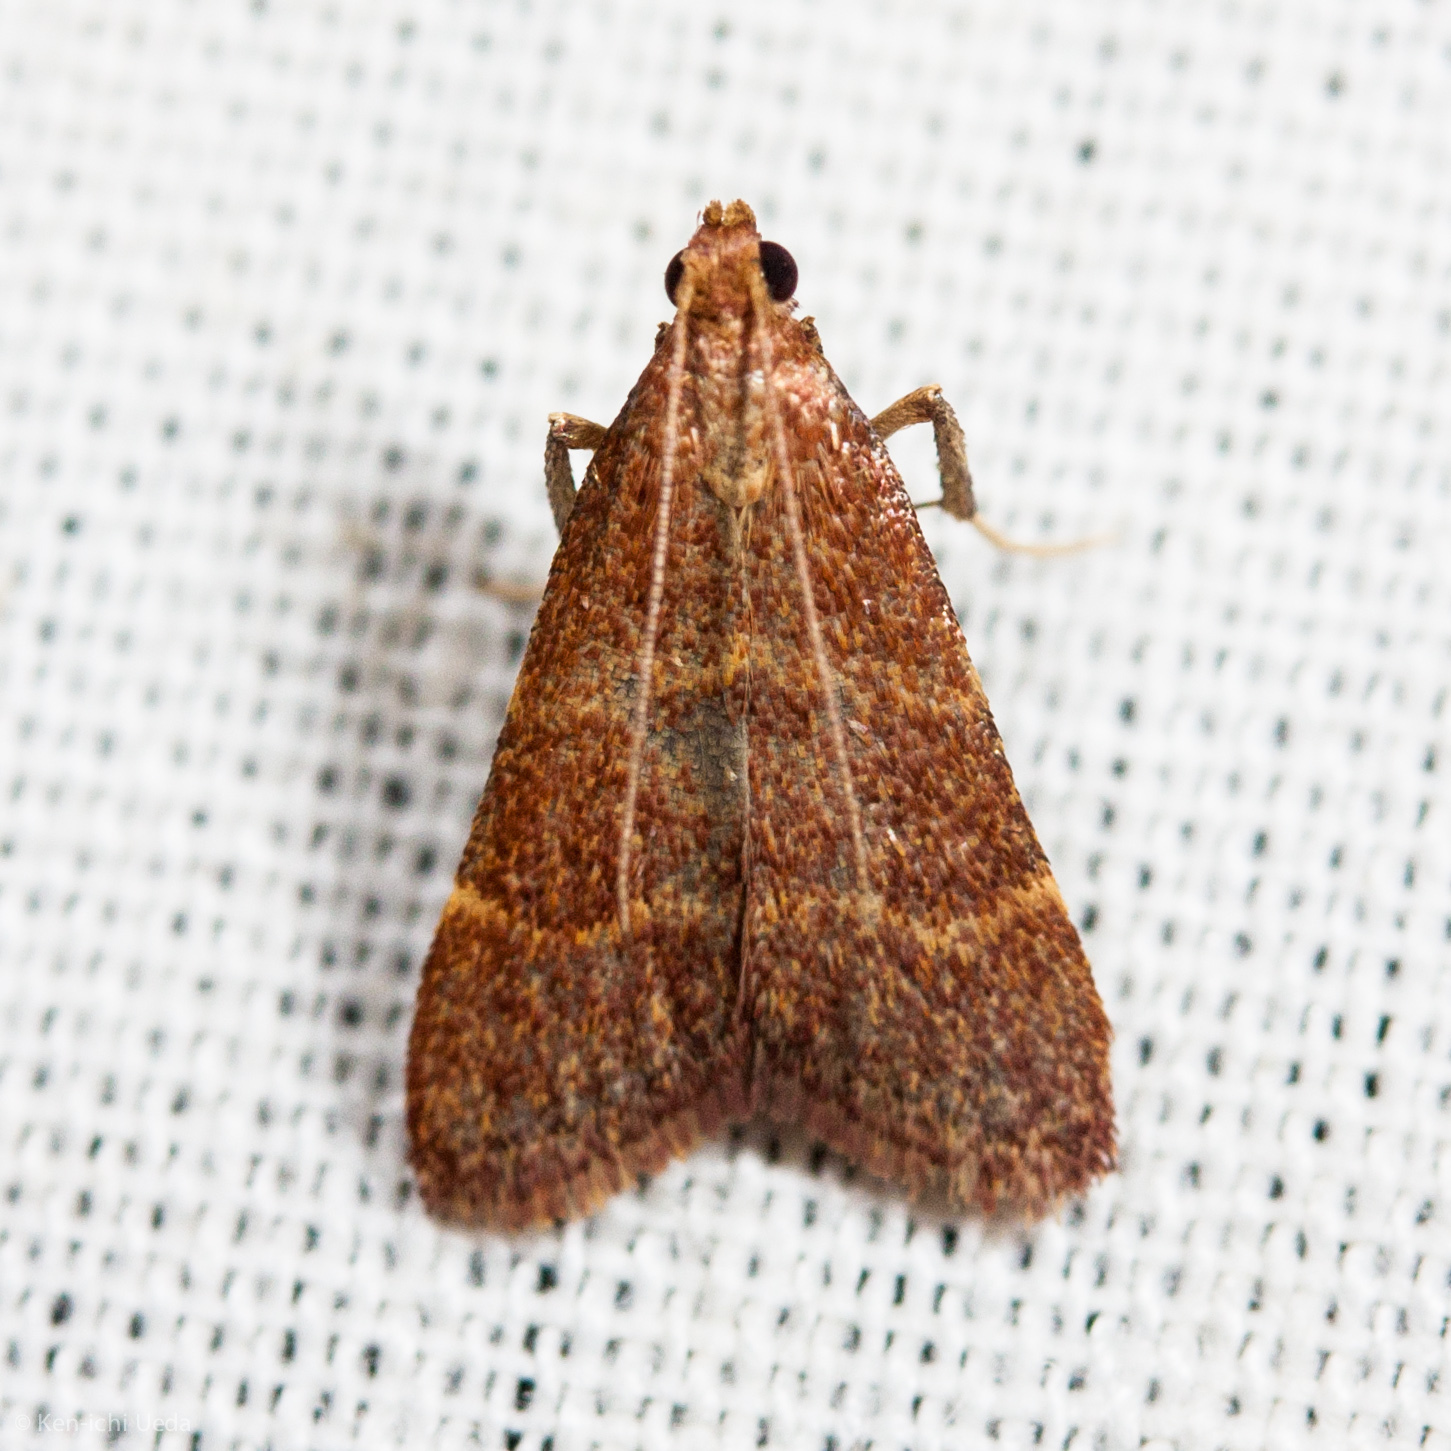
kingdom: Animalia
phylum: Arthropoda
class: Insecta
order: Lepidoptera
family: Pyralidae
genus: Arta
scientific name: Arta epicoenalis
